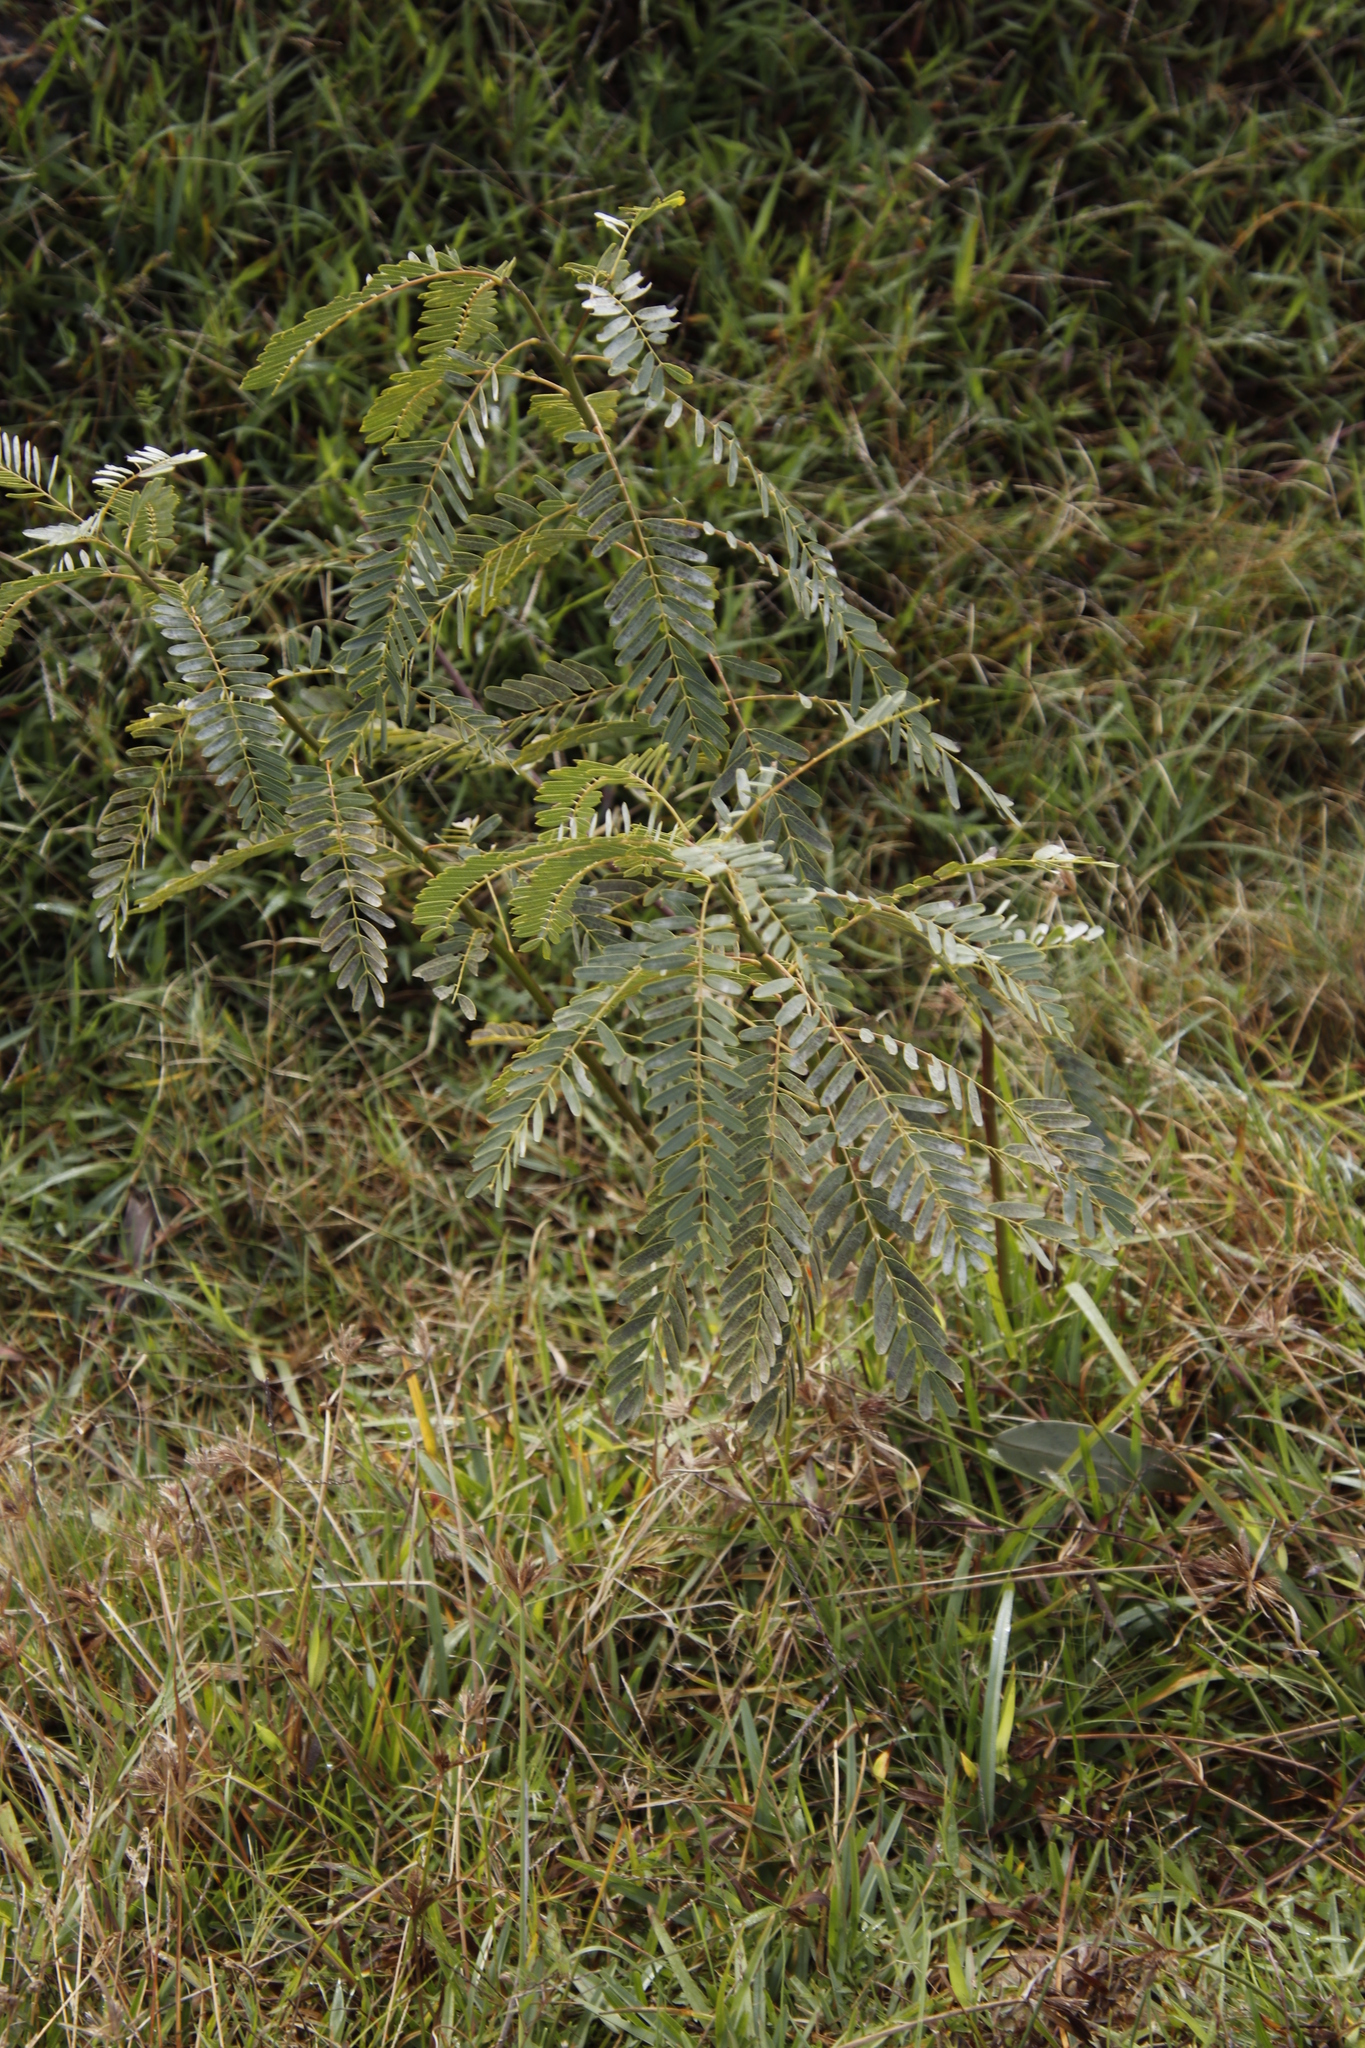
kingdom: Plantae
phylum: Tracheophyta
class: Magnoliopsida
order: Fabales
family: Fabaceae
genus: Sesbania
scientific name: Sesbania punicea
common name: Rattlebox
